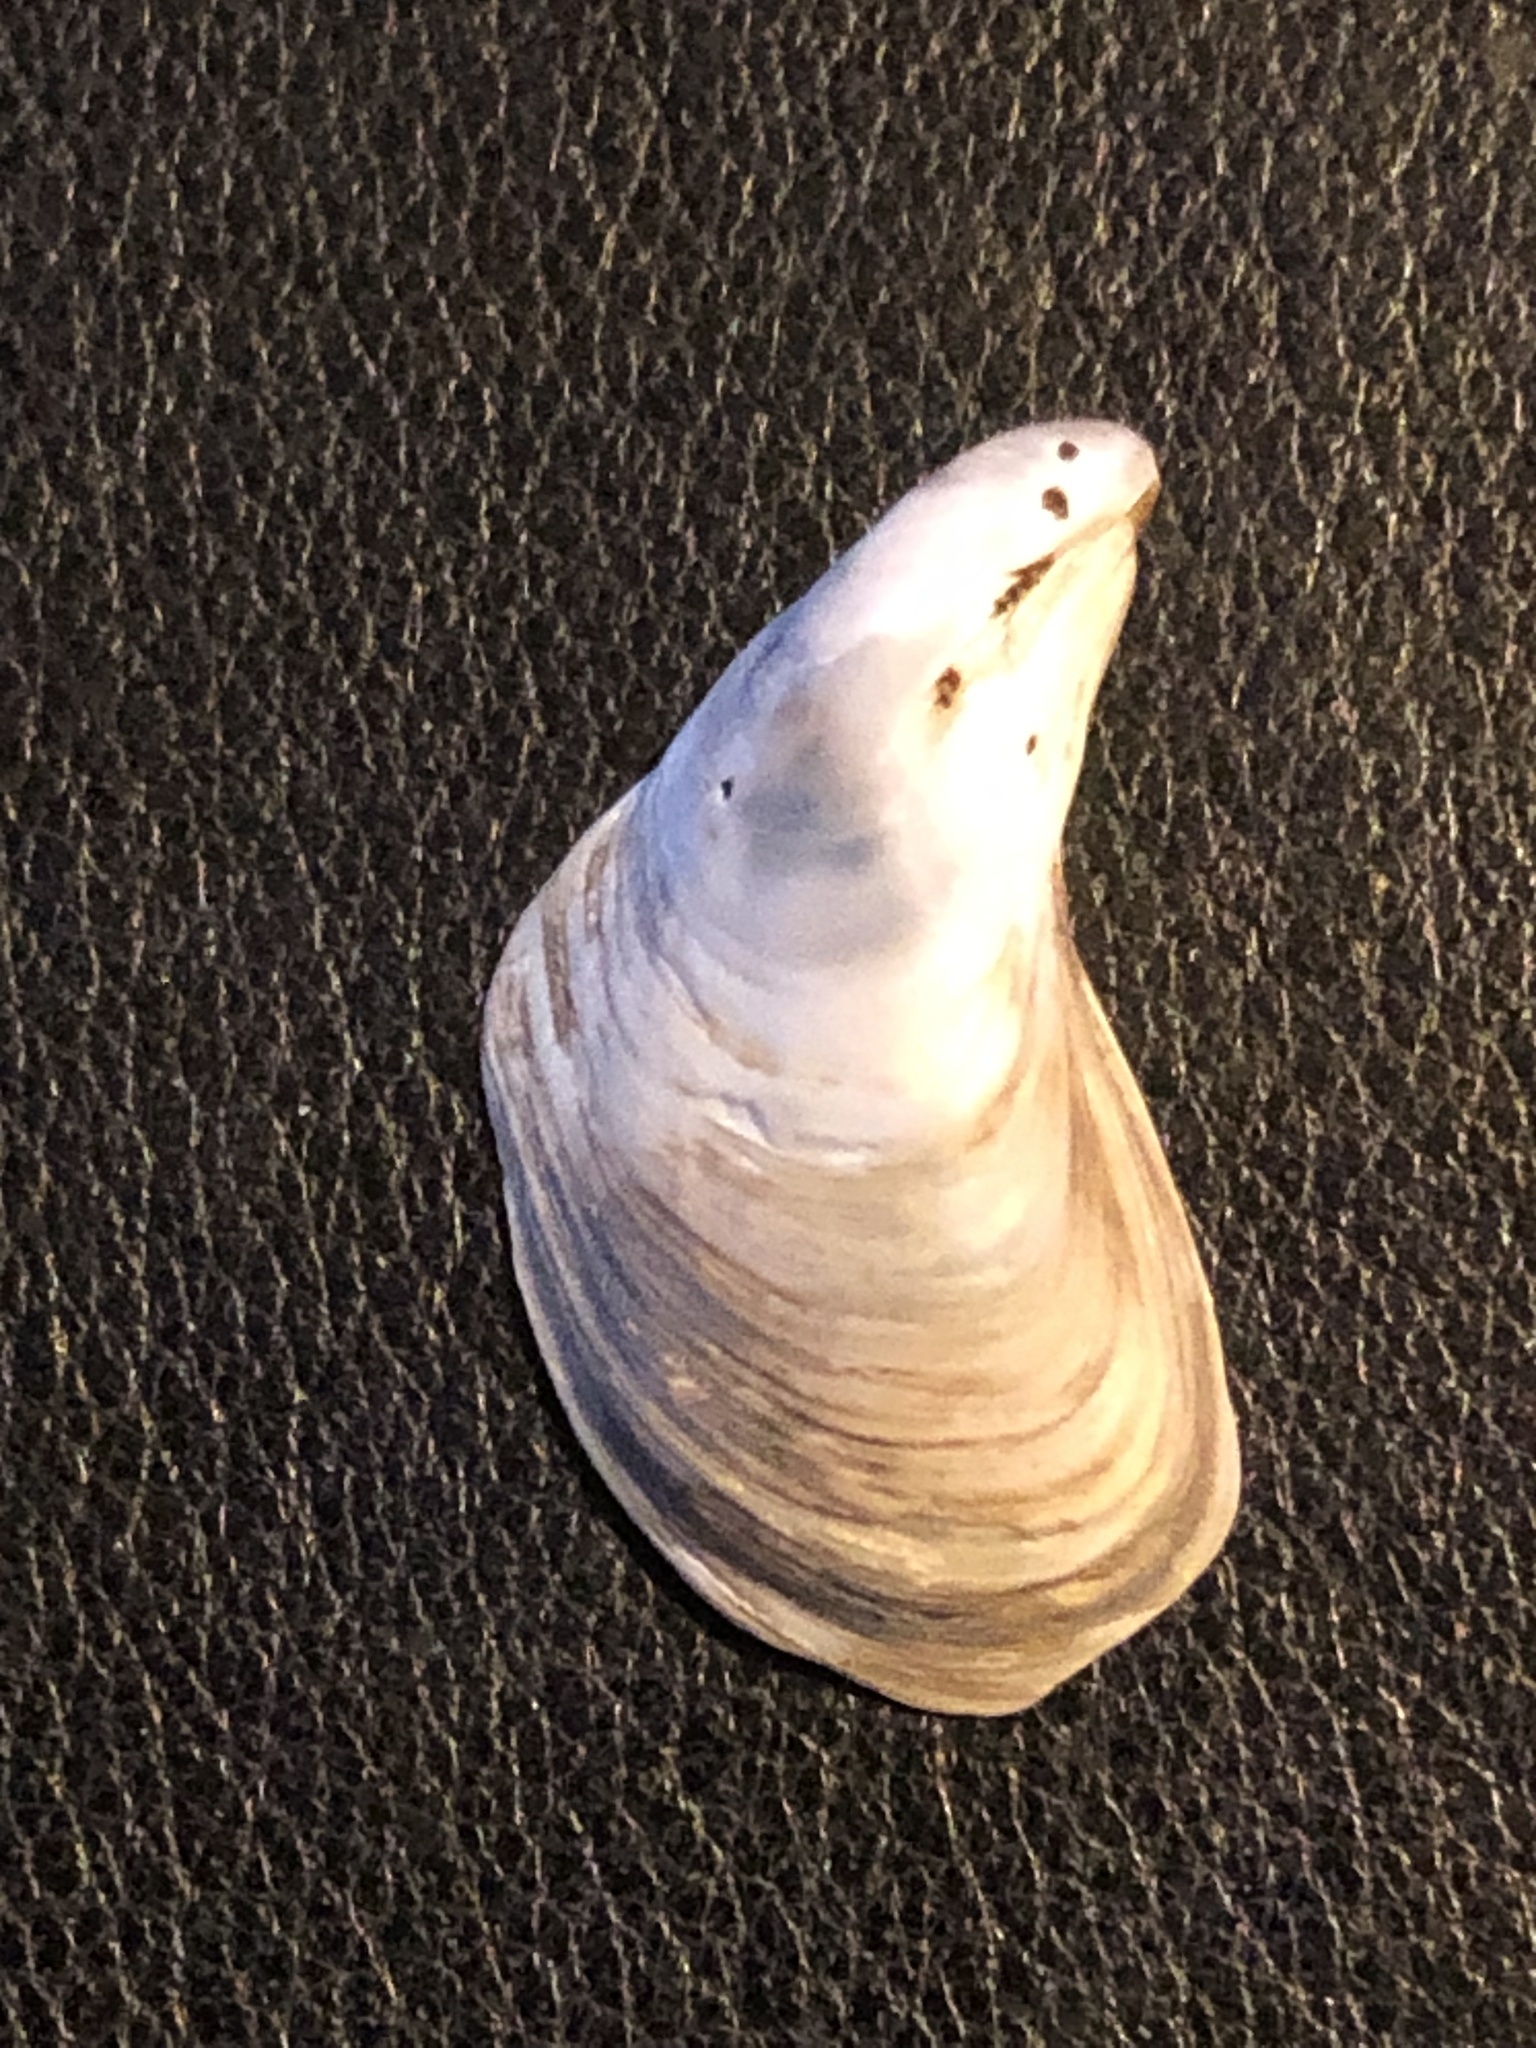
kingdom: Animalia
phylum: Mollusca
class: Bivalvia
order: Myida
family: Dreissenidae
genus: Dreissena
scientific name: Dreissena bugensis
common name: Quagga mussel
